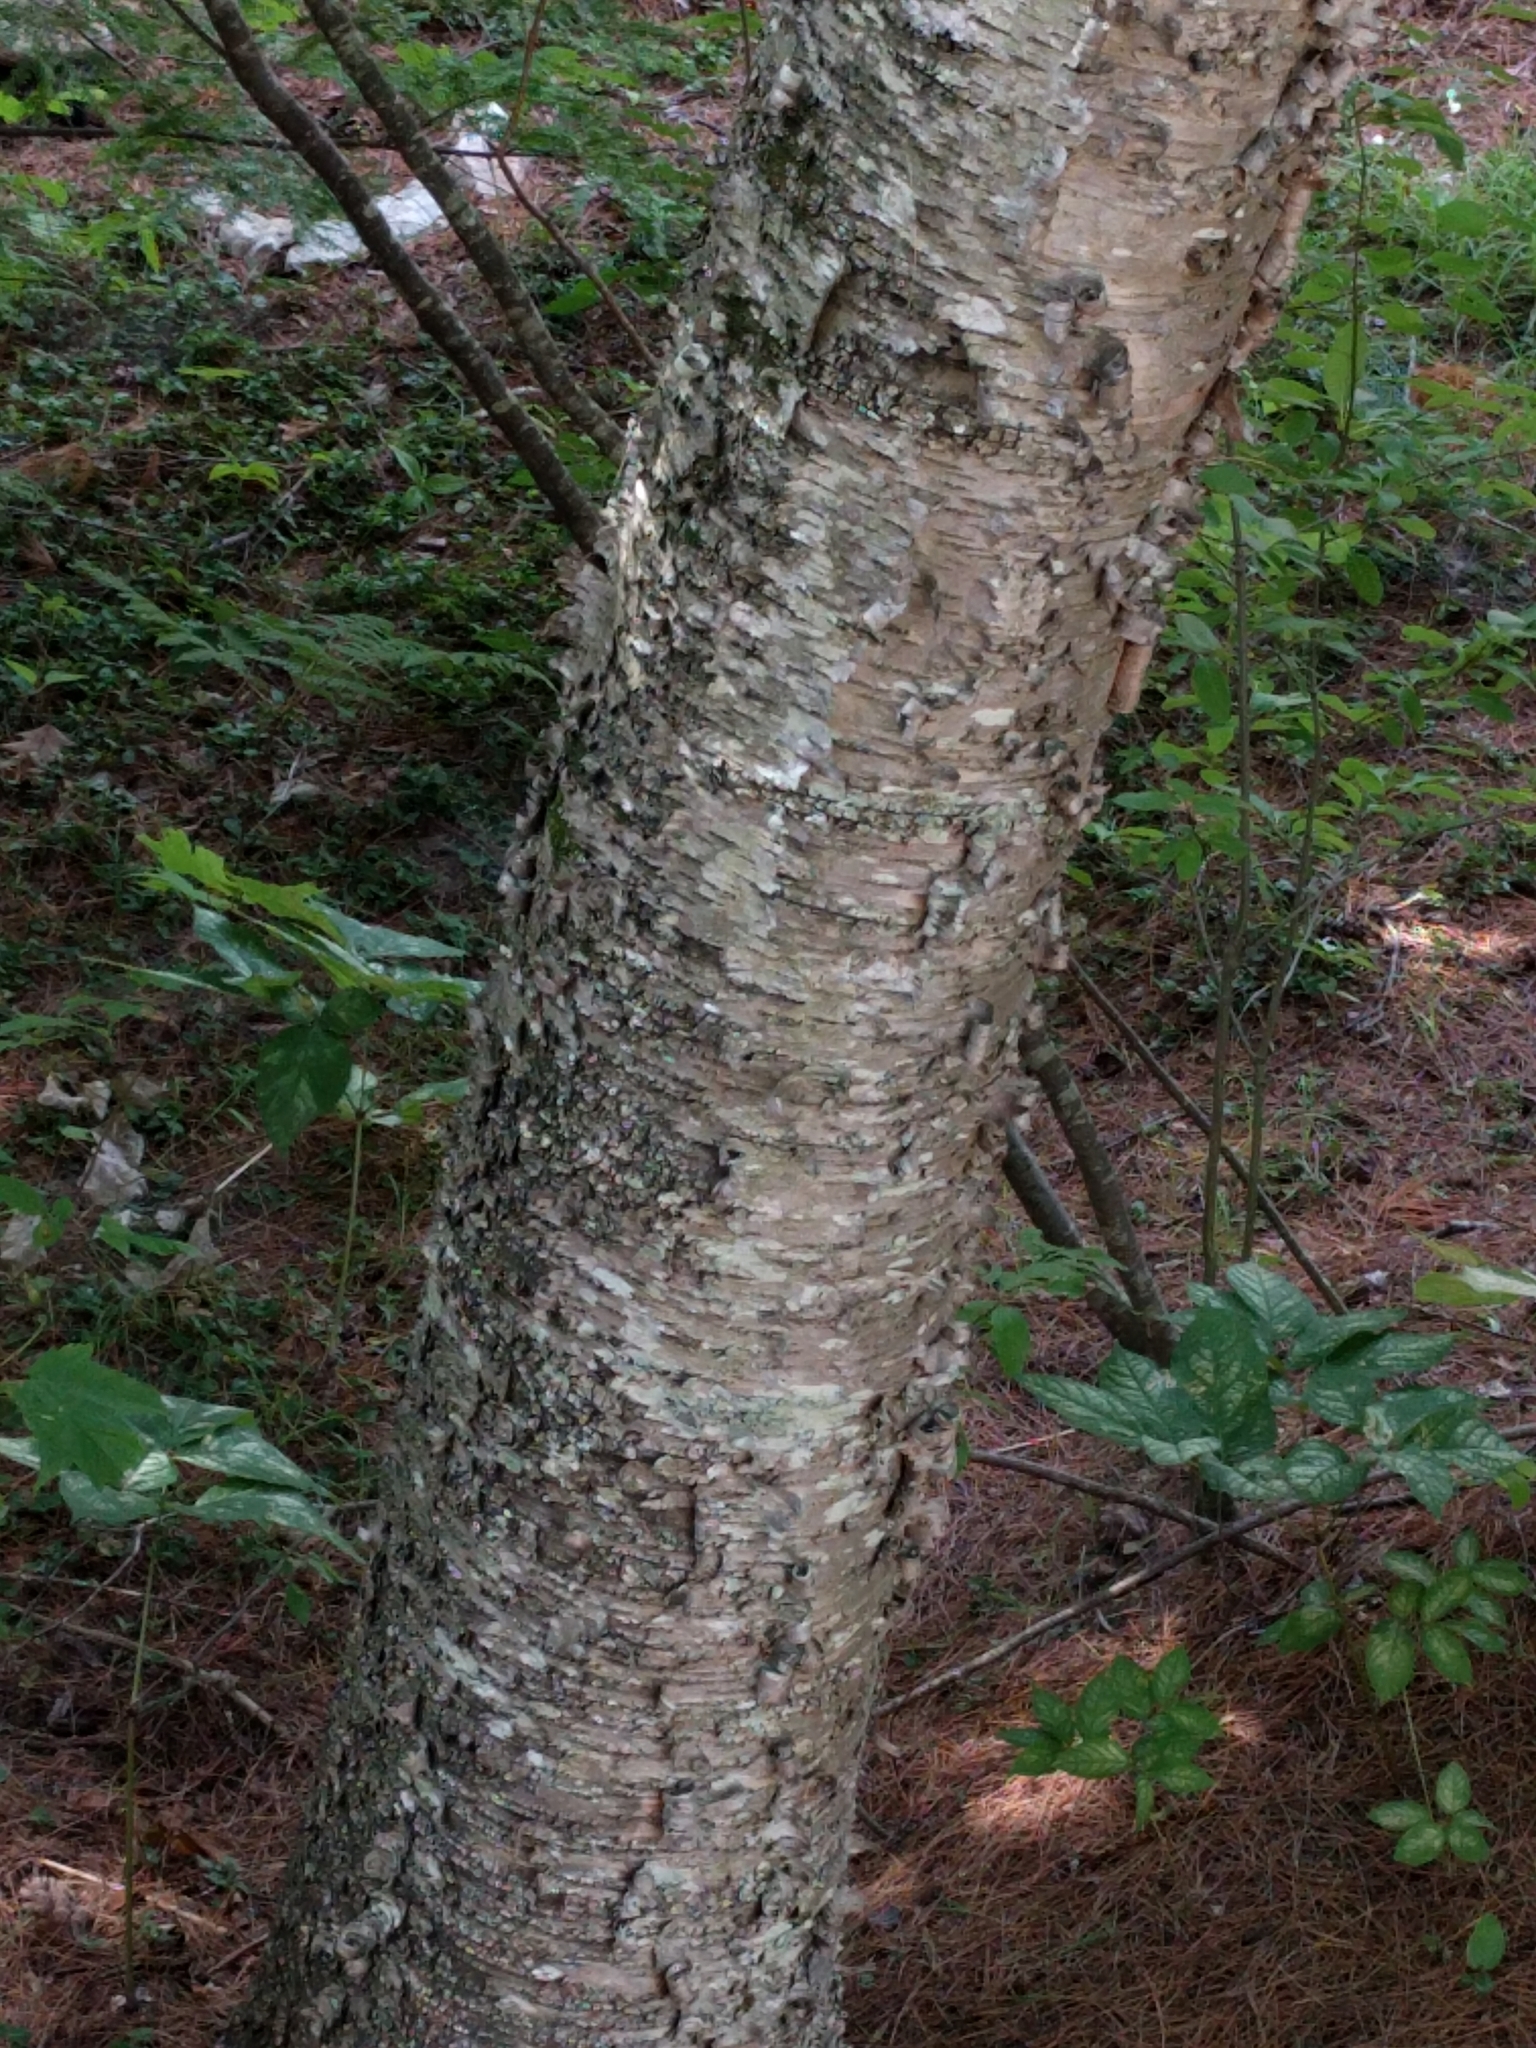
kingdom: Plantae
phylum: Tracheophyta
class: Magnoliopsida
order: Fagales
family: Betulaceae
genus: Betula
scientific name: Betula alleghaniensis
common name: Yellow birch
